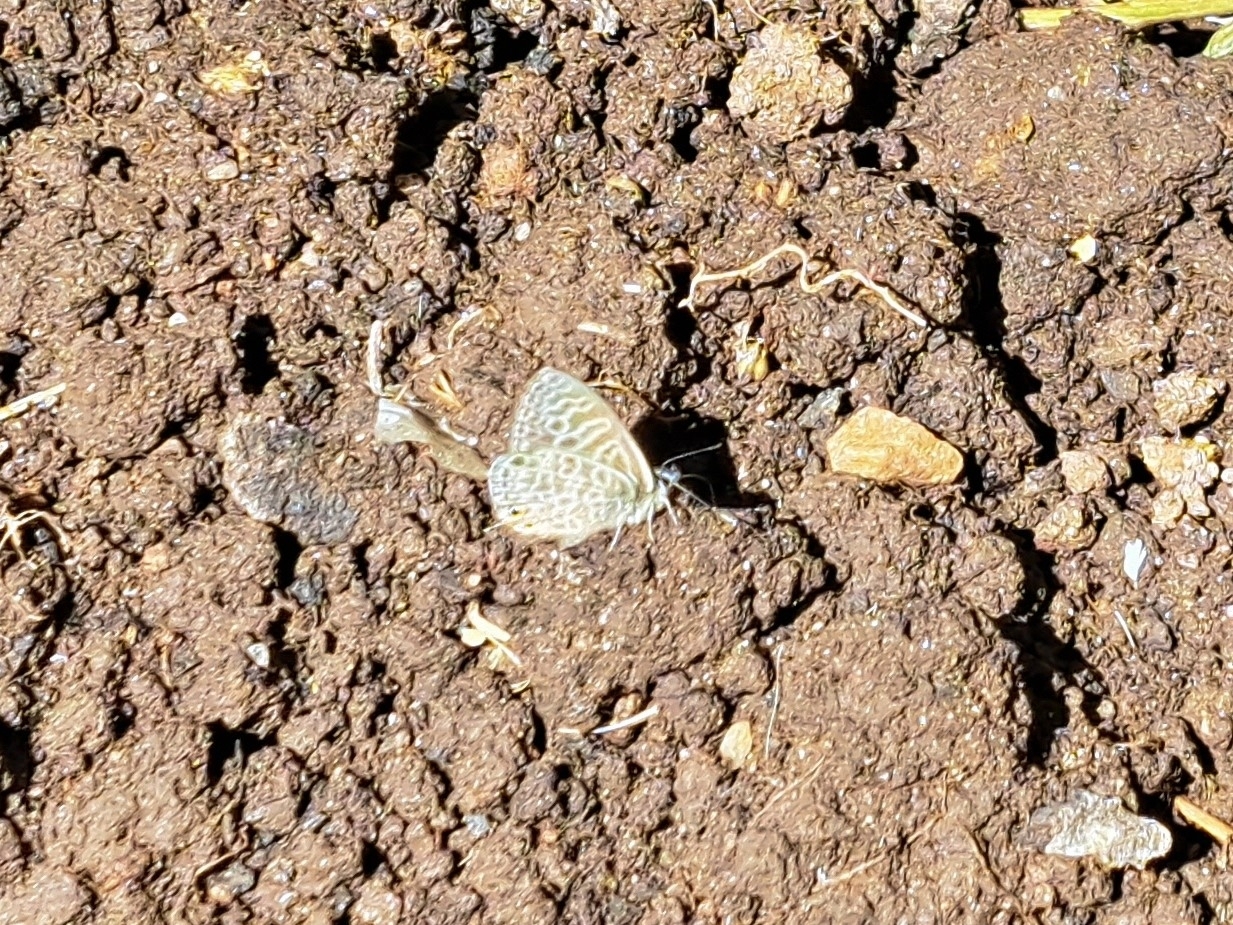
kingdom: Animalia
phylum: Arthropoda
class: Insecta
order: Lepidoptera
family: Lycaenidae
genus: Leptotes
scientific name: Leptotes pirithous
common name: Lang's short-tailed blue
